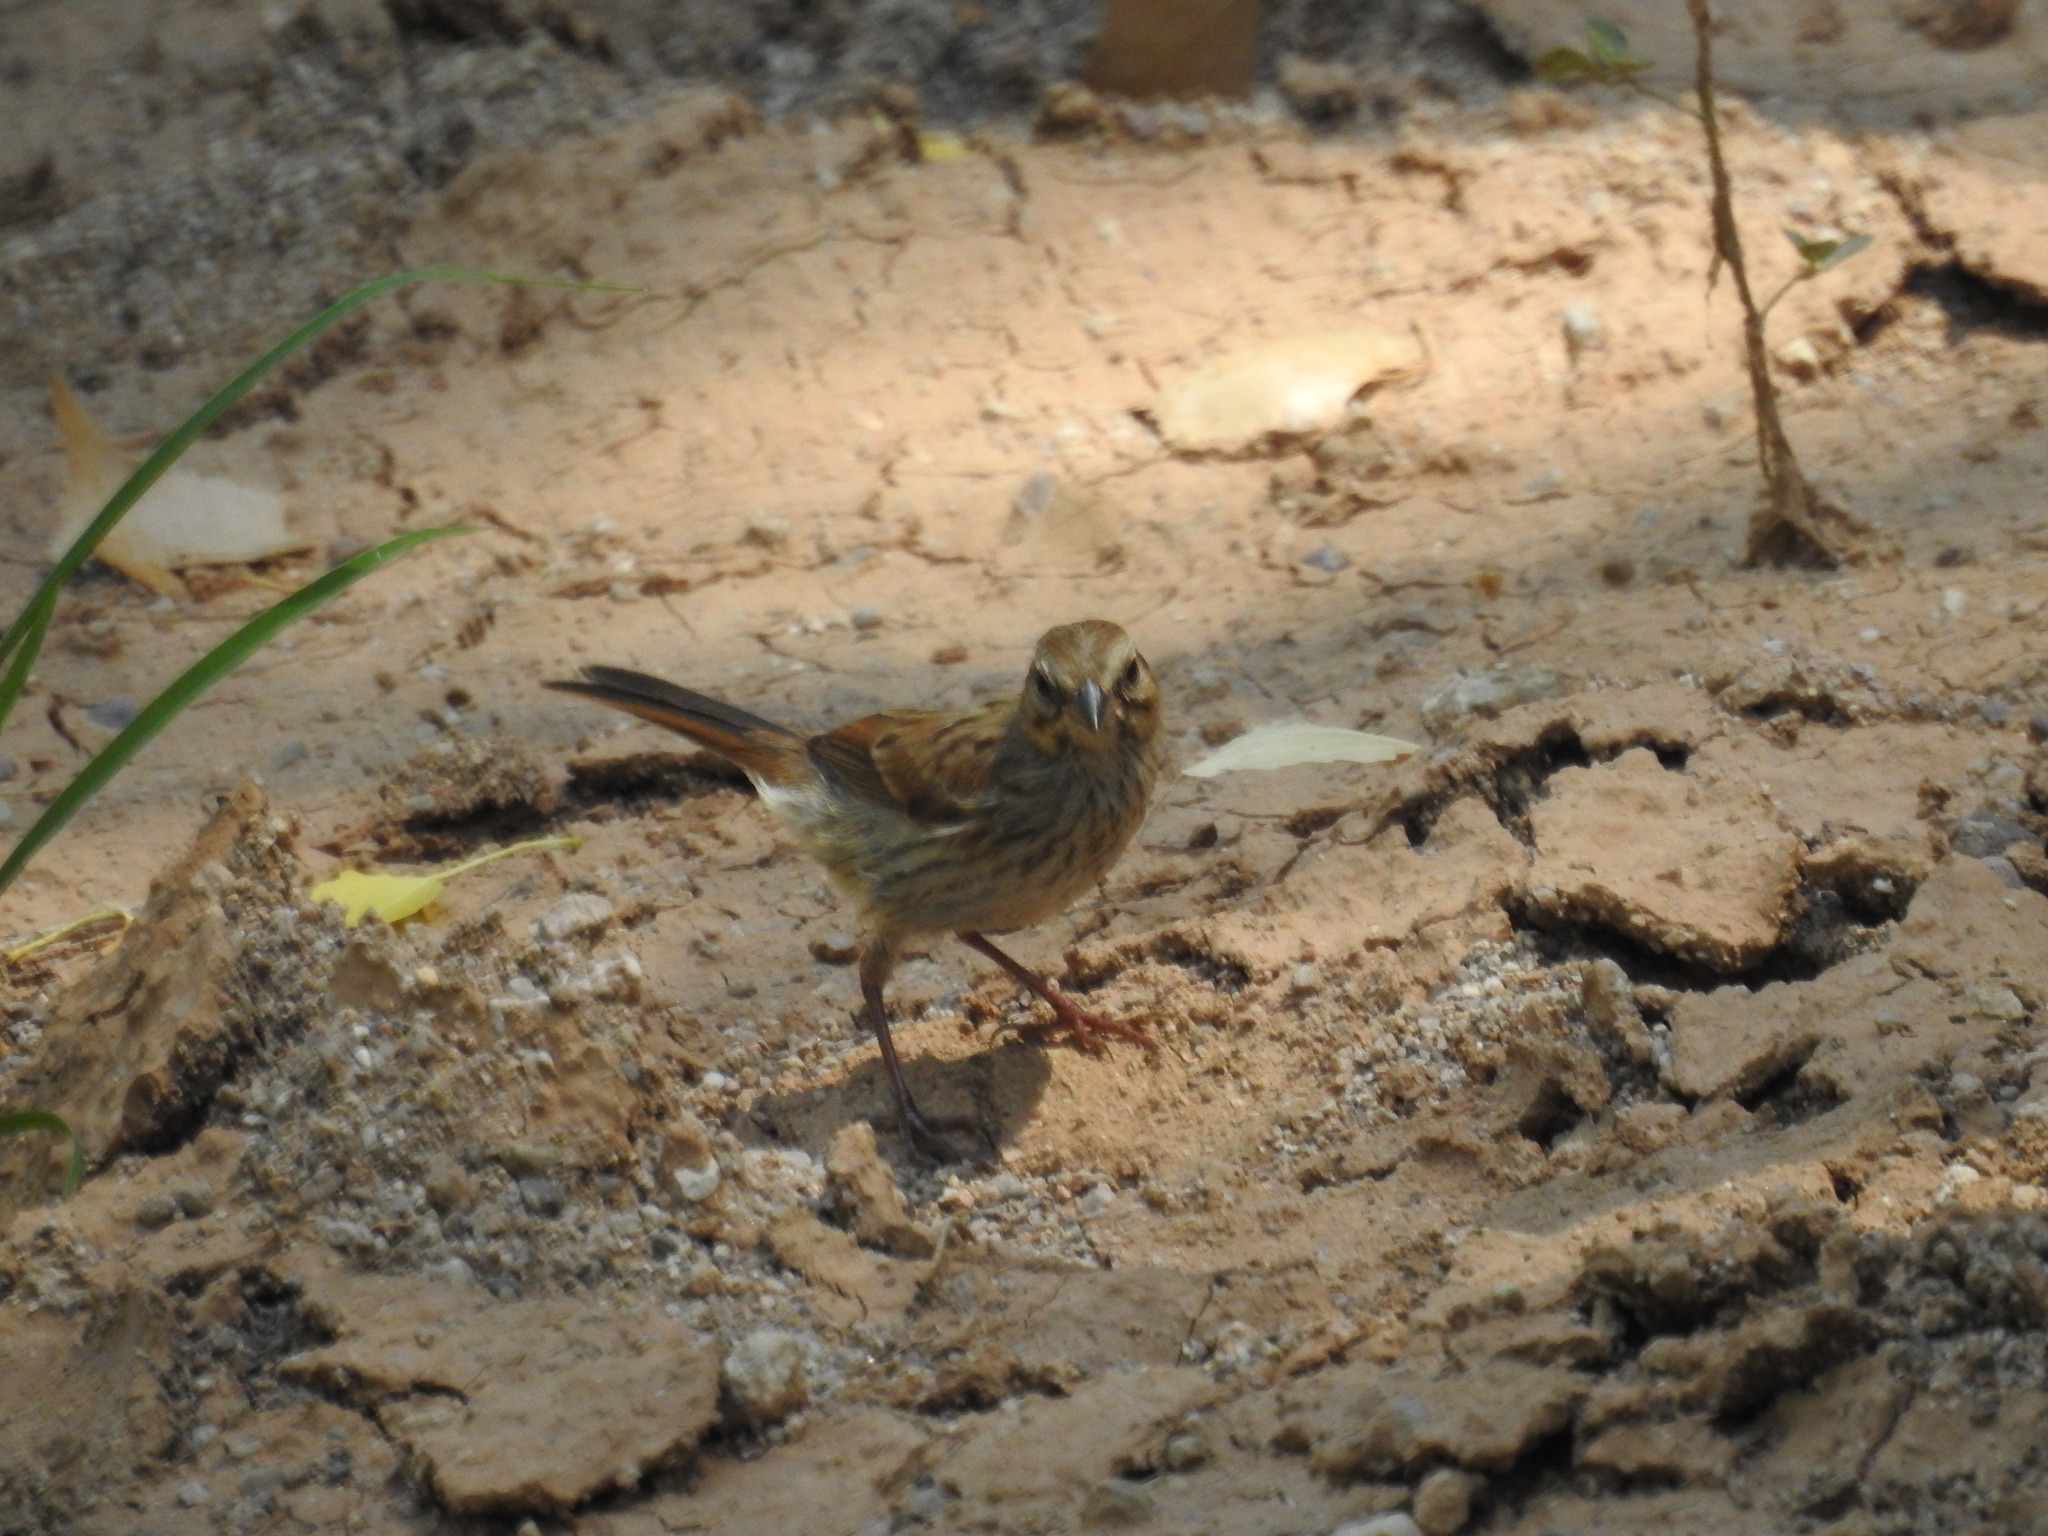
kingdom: Animalia
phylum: Chordata
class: Aves
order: Passeriformes
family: Passerellidae
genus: Melospiza
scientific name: Melospiza melodia
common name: Song sparrow
